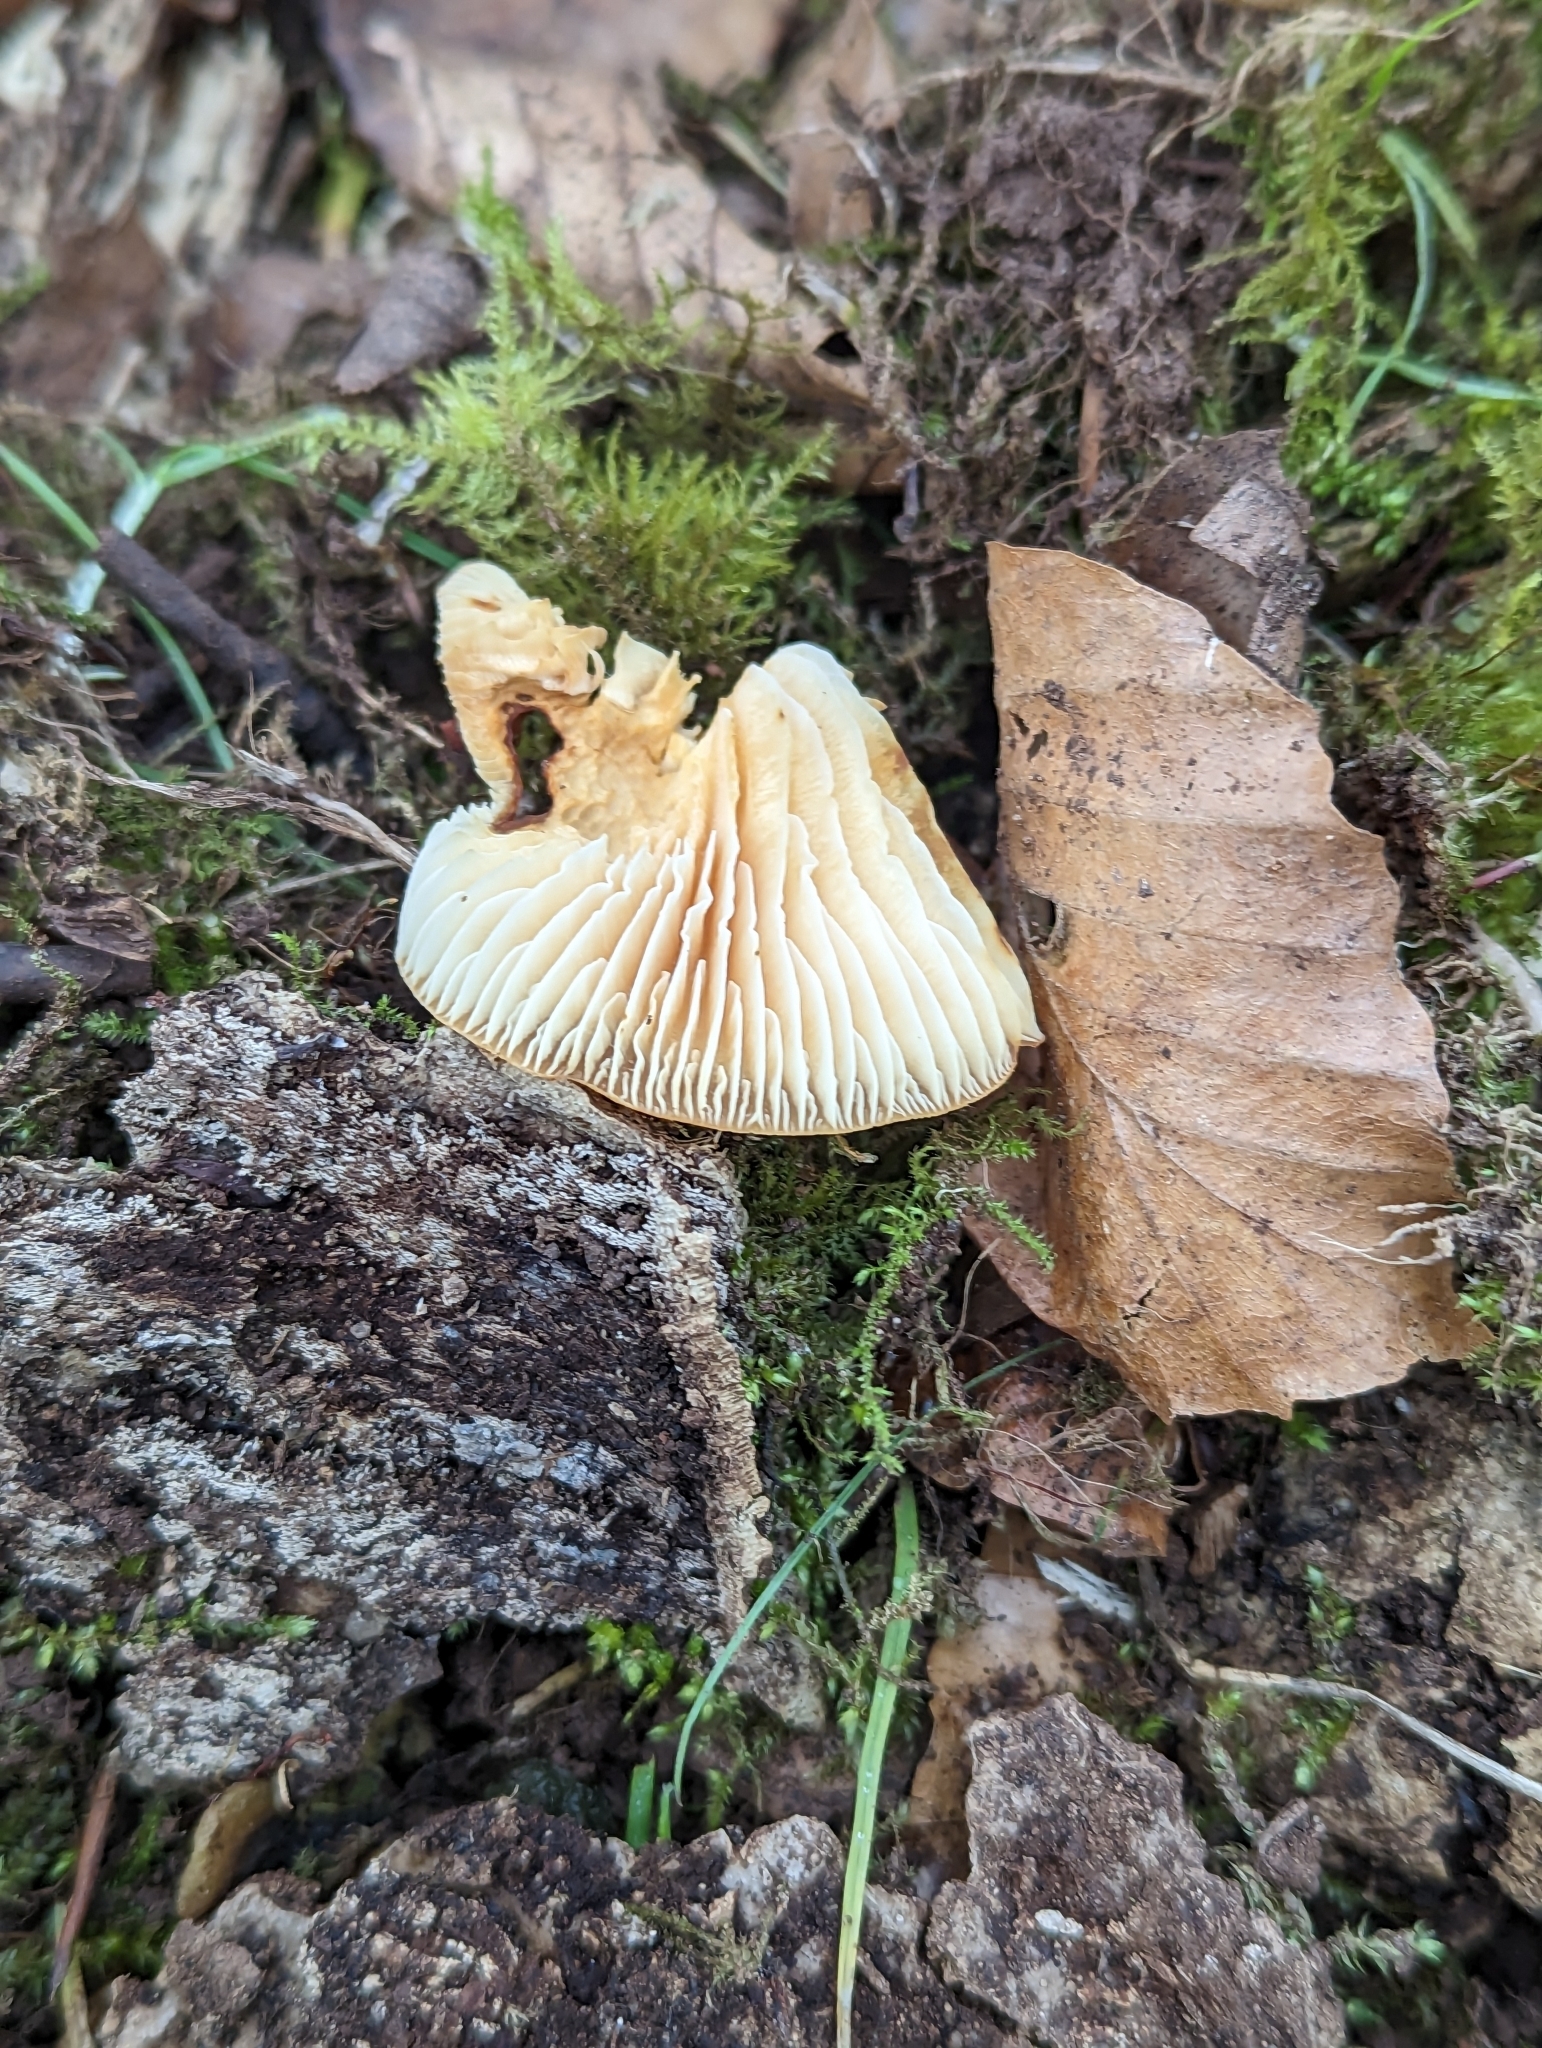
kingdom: Fungi
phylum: Basidiomycota
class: Agaricomycetes
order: Agaricales
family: Physalacriaceae
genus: Flammulina
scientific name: Flammulina
